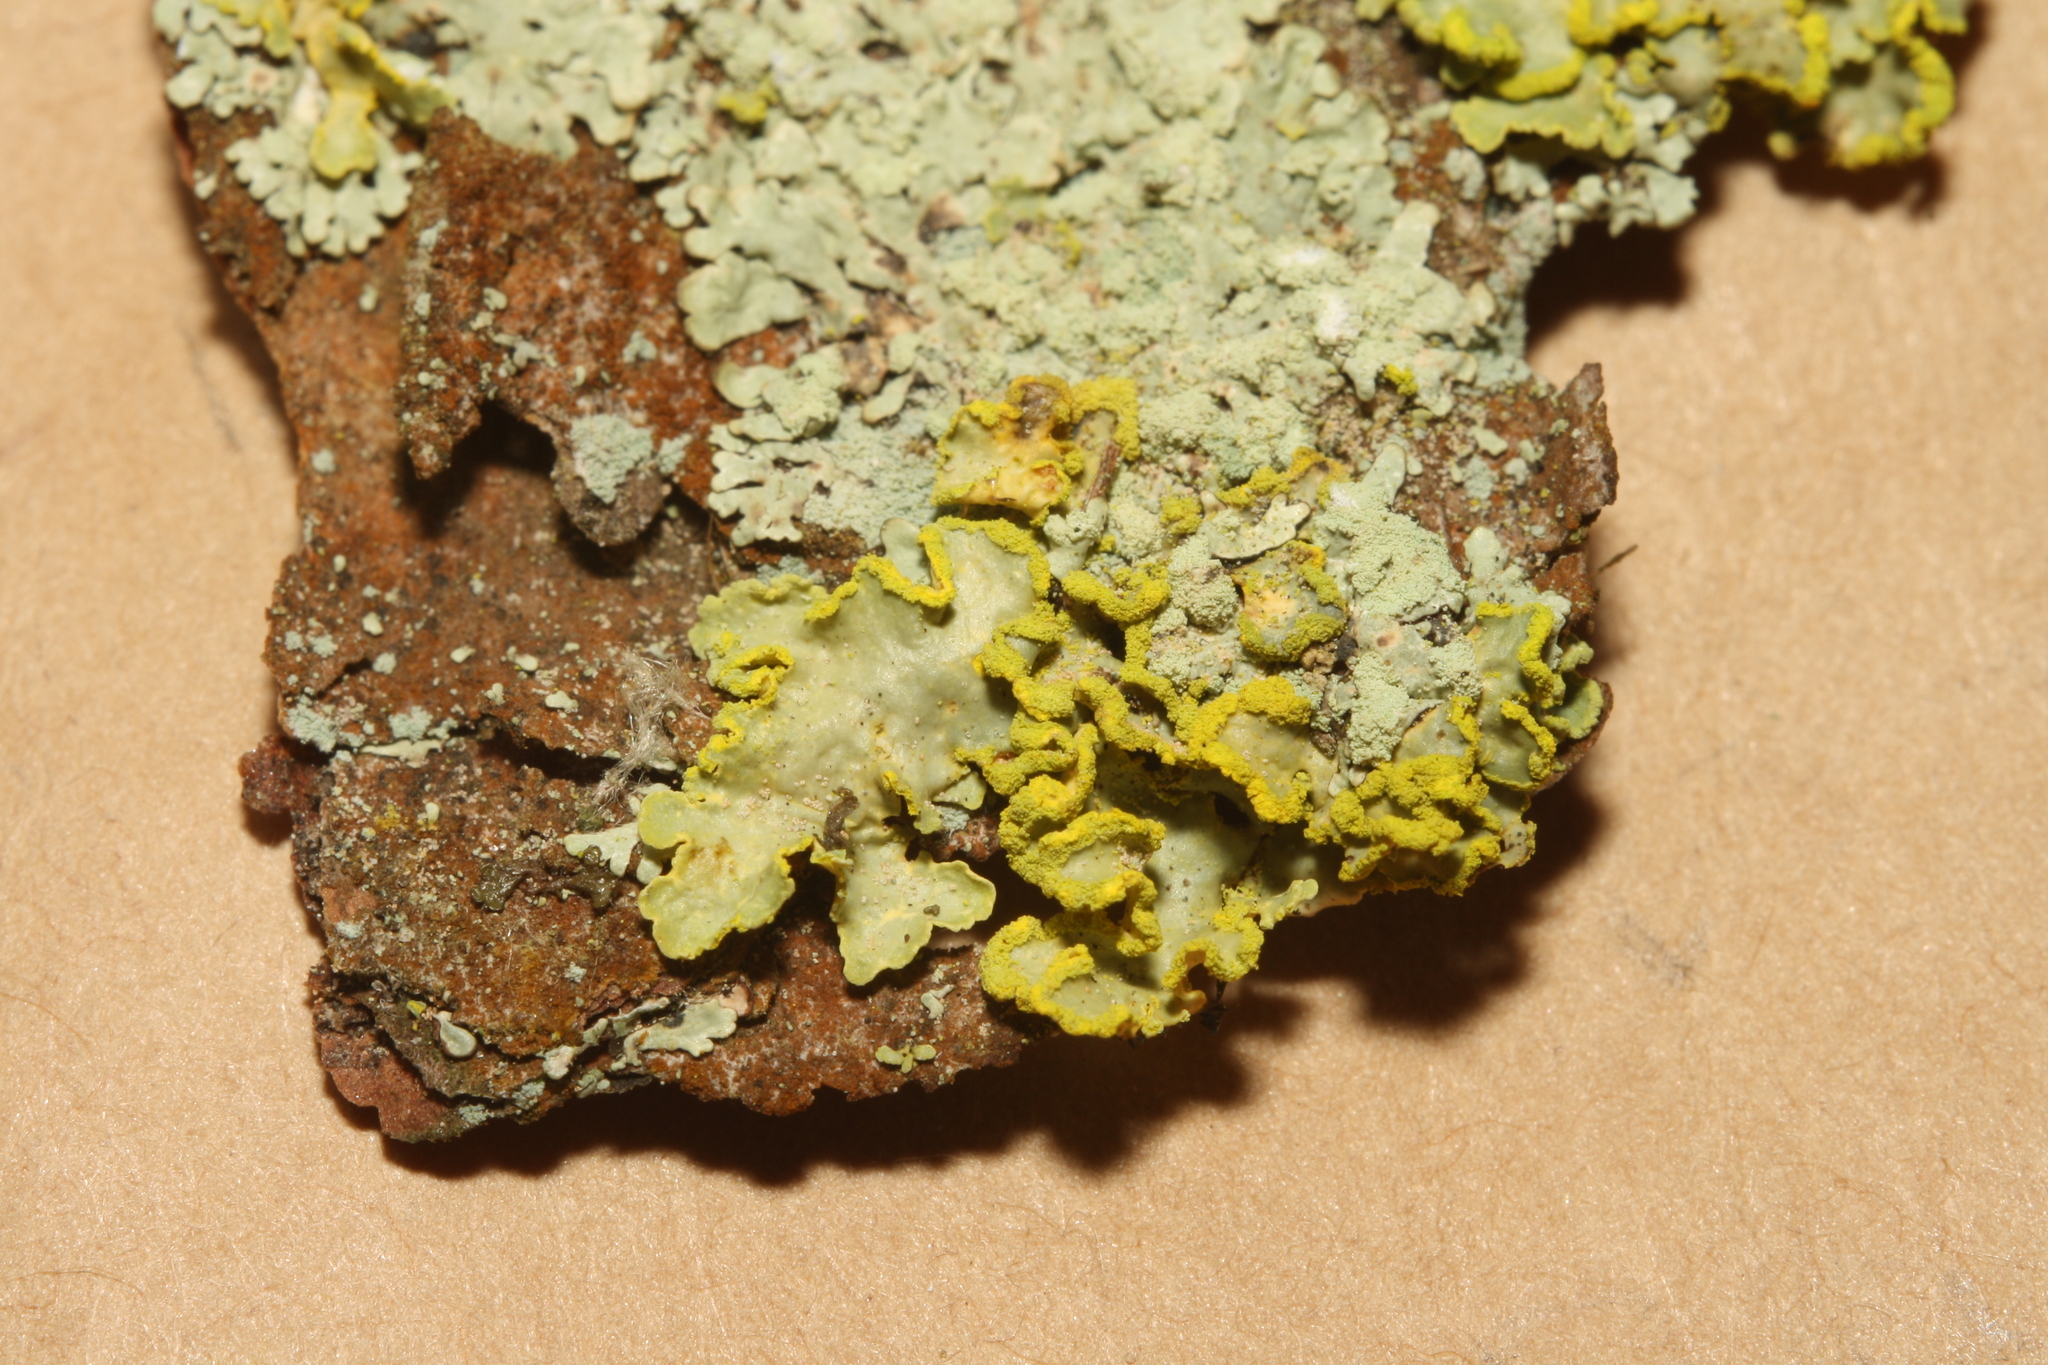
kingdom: Fungi
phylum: Ascomycota
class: Lecanoromycetes
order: Lecanorales
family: Parmeliaceae
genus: Vulpicida
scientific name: Vulpicida pinastri
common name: Powdered sunshine lichen
